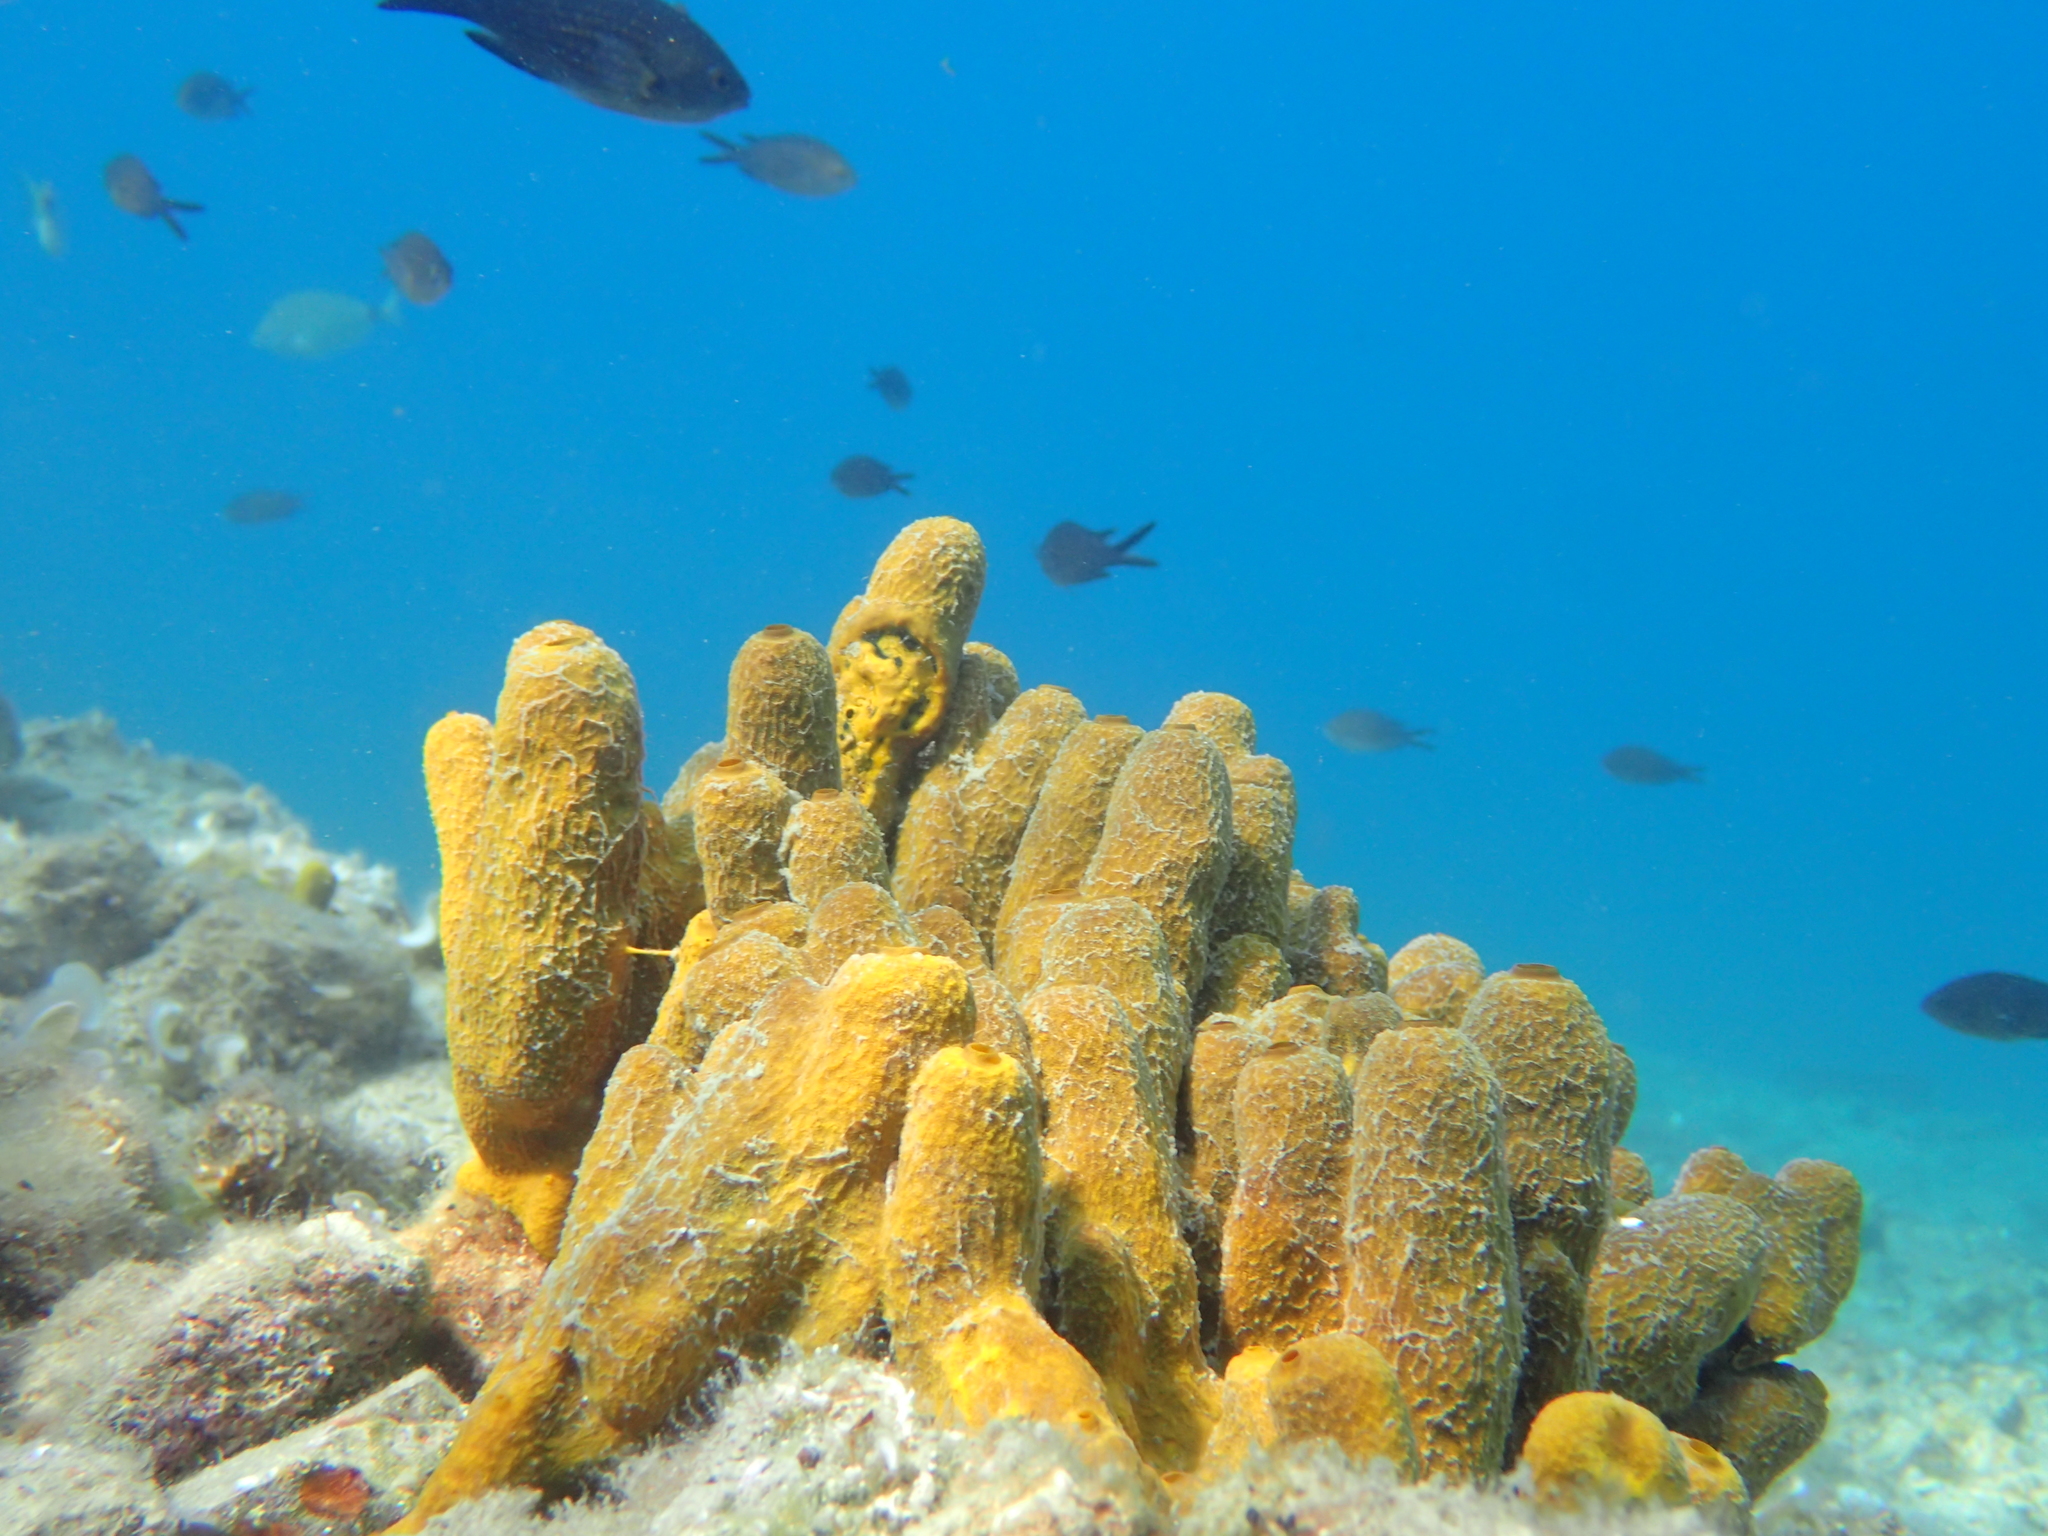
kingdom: Animalia
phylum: Porifera
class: Demospongiae
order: Verongiida
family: Aplysinidae
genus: Aplysina
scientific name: Aplysina aerophoba
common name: Aureate sponge
